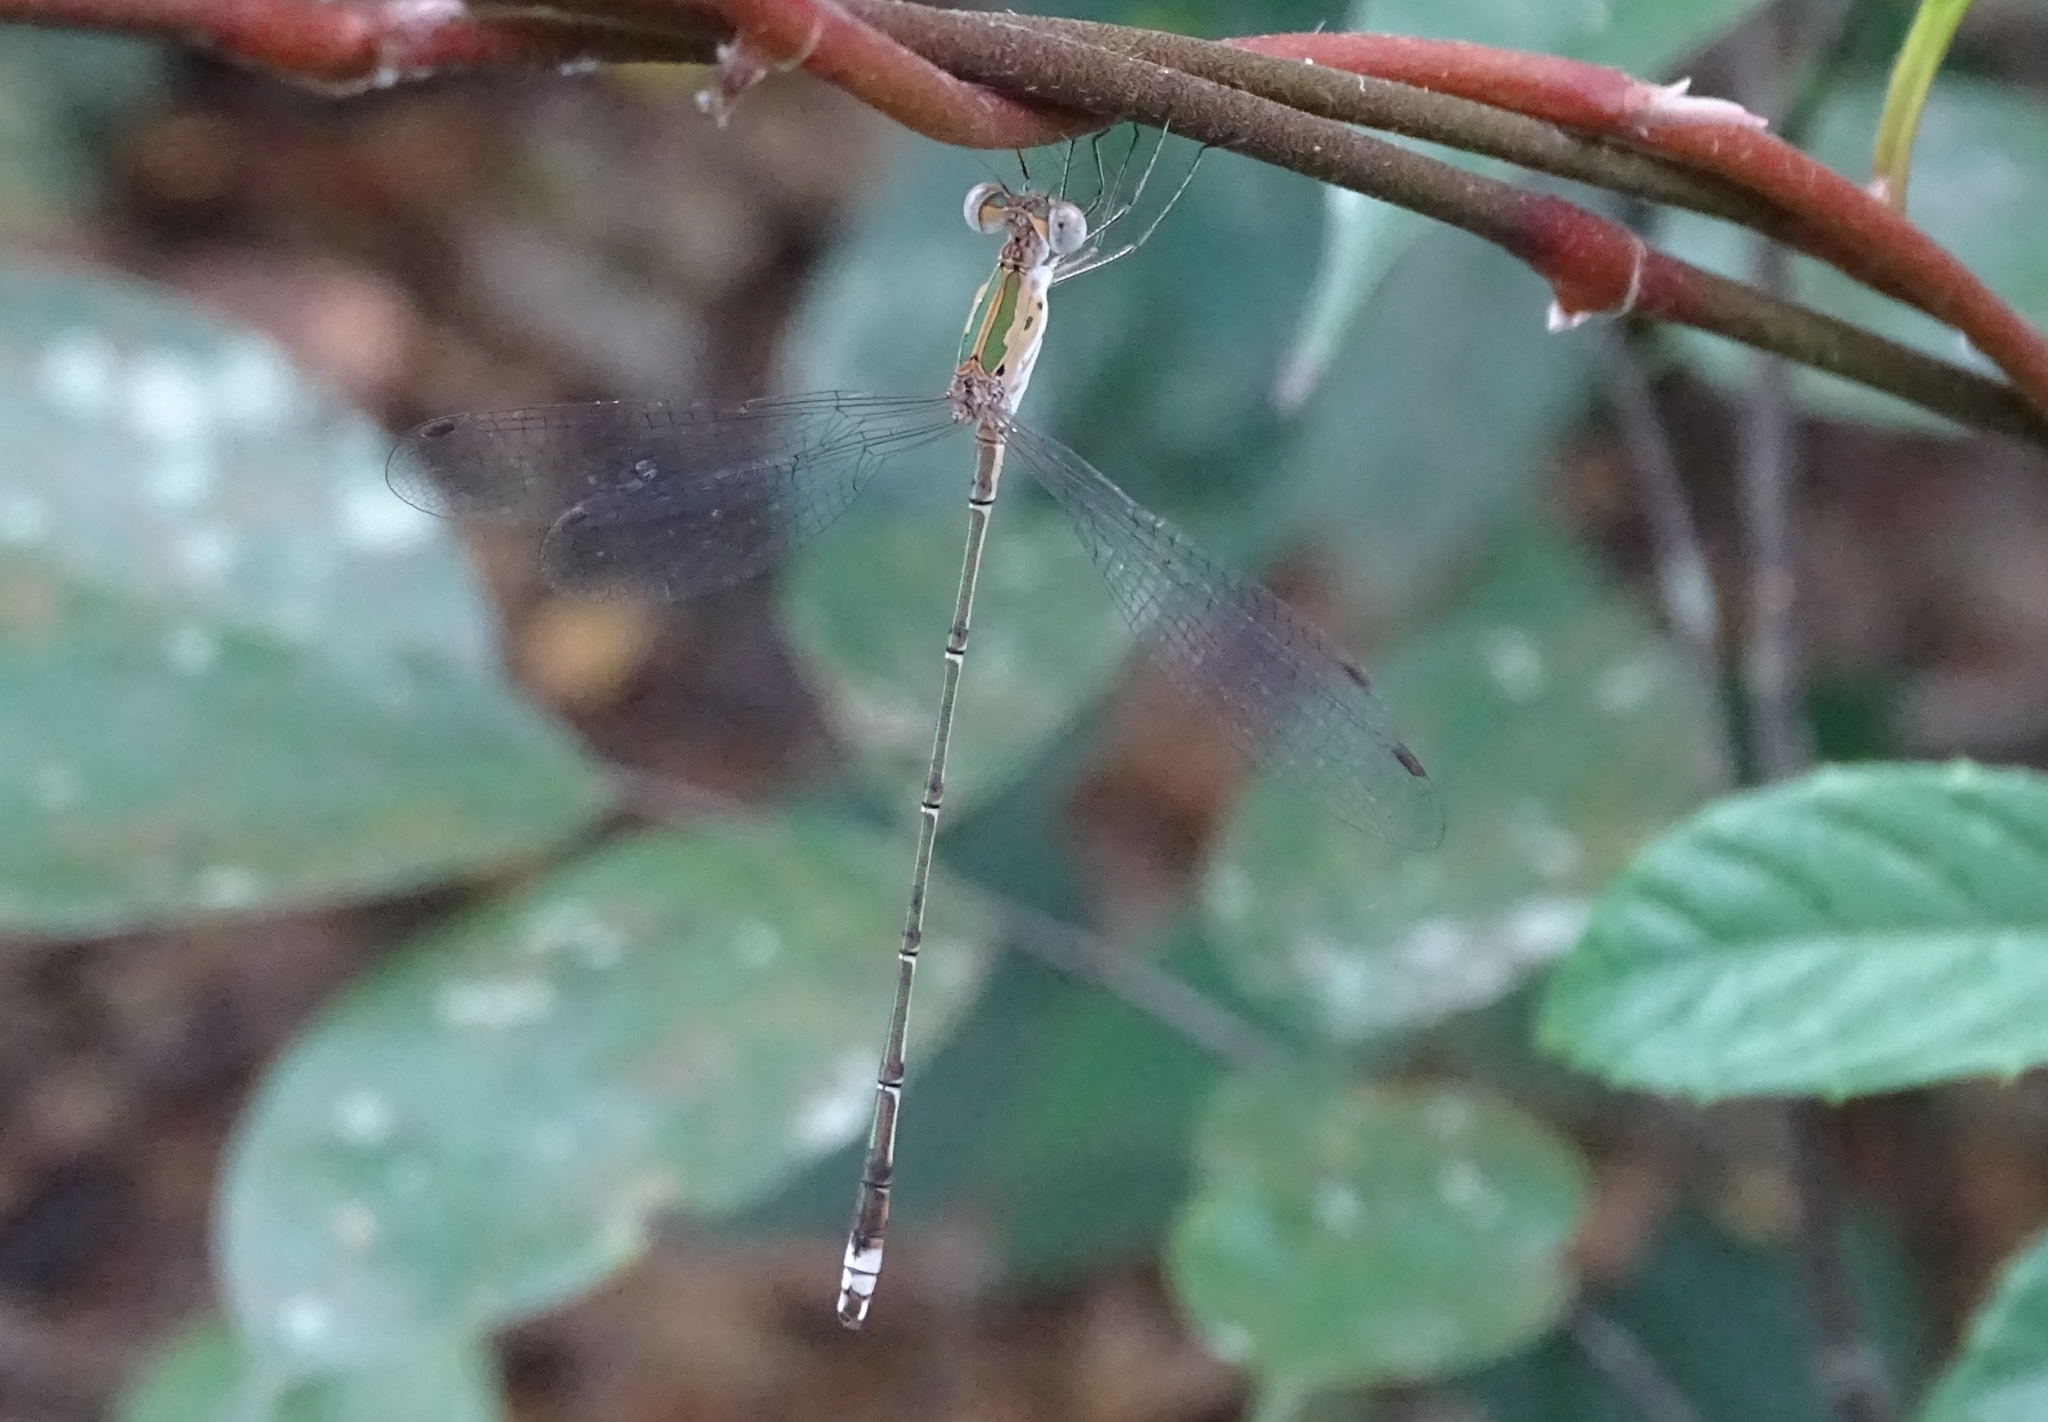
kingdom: Animalia
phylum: Arthropoda
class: Insecta
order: Odonata
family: Lestidae
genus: Lestes
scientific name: Lestes elatus
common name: Emerald spreadwing
